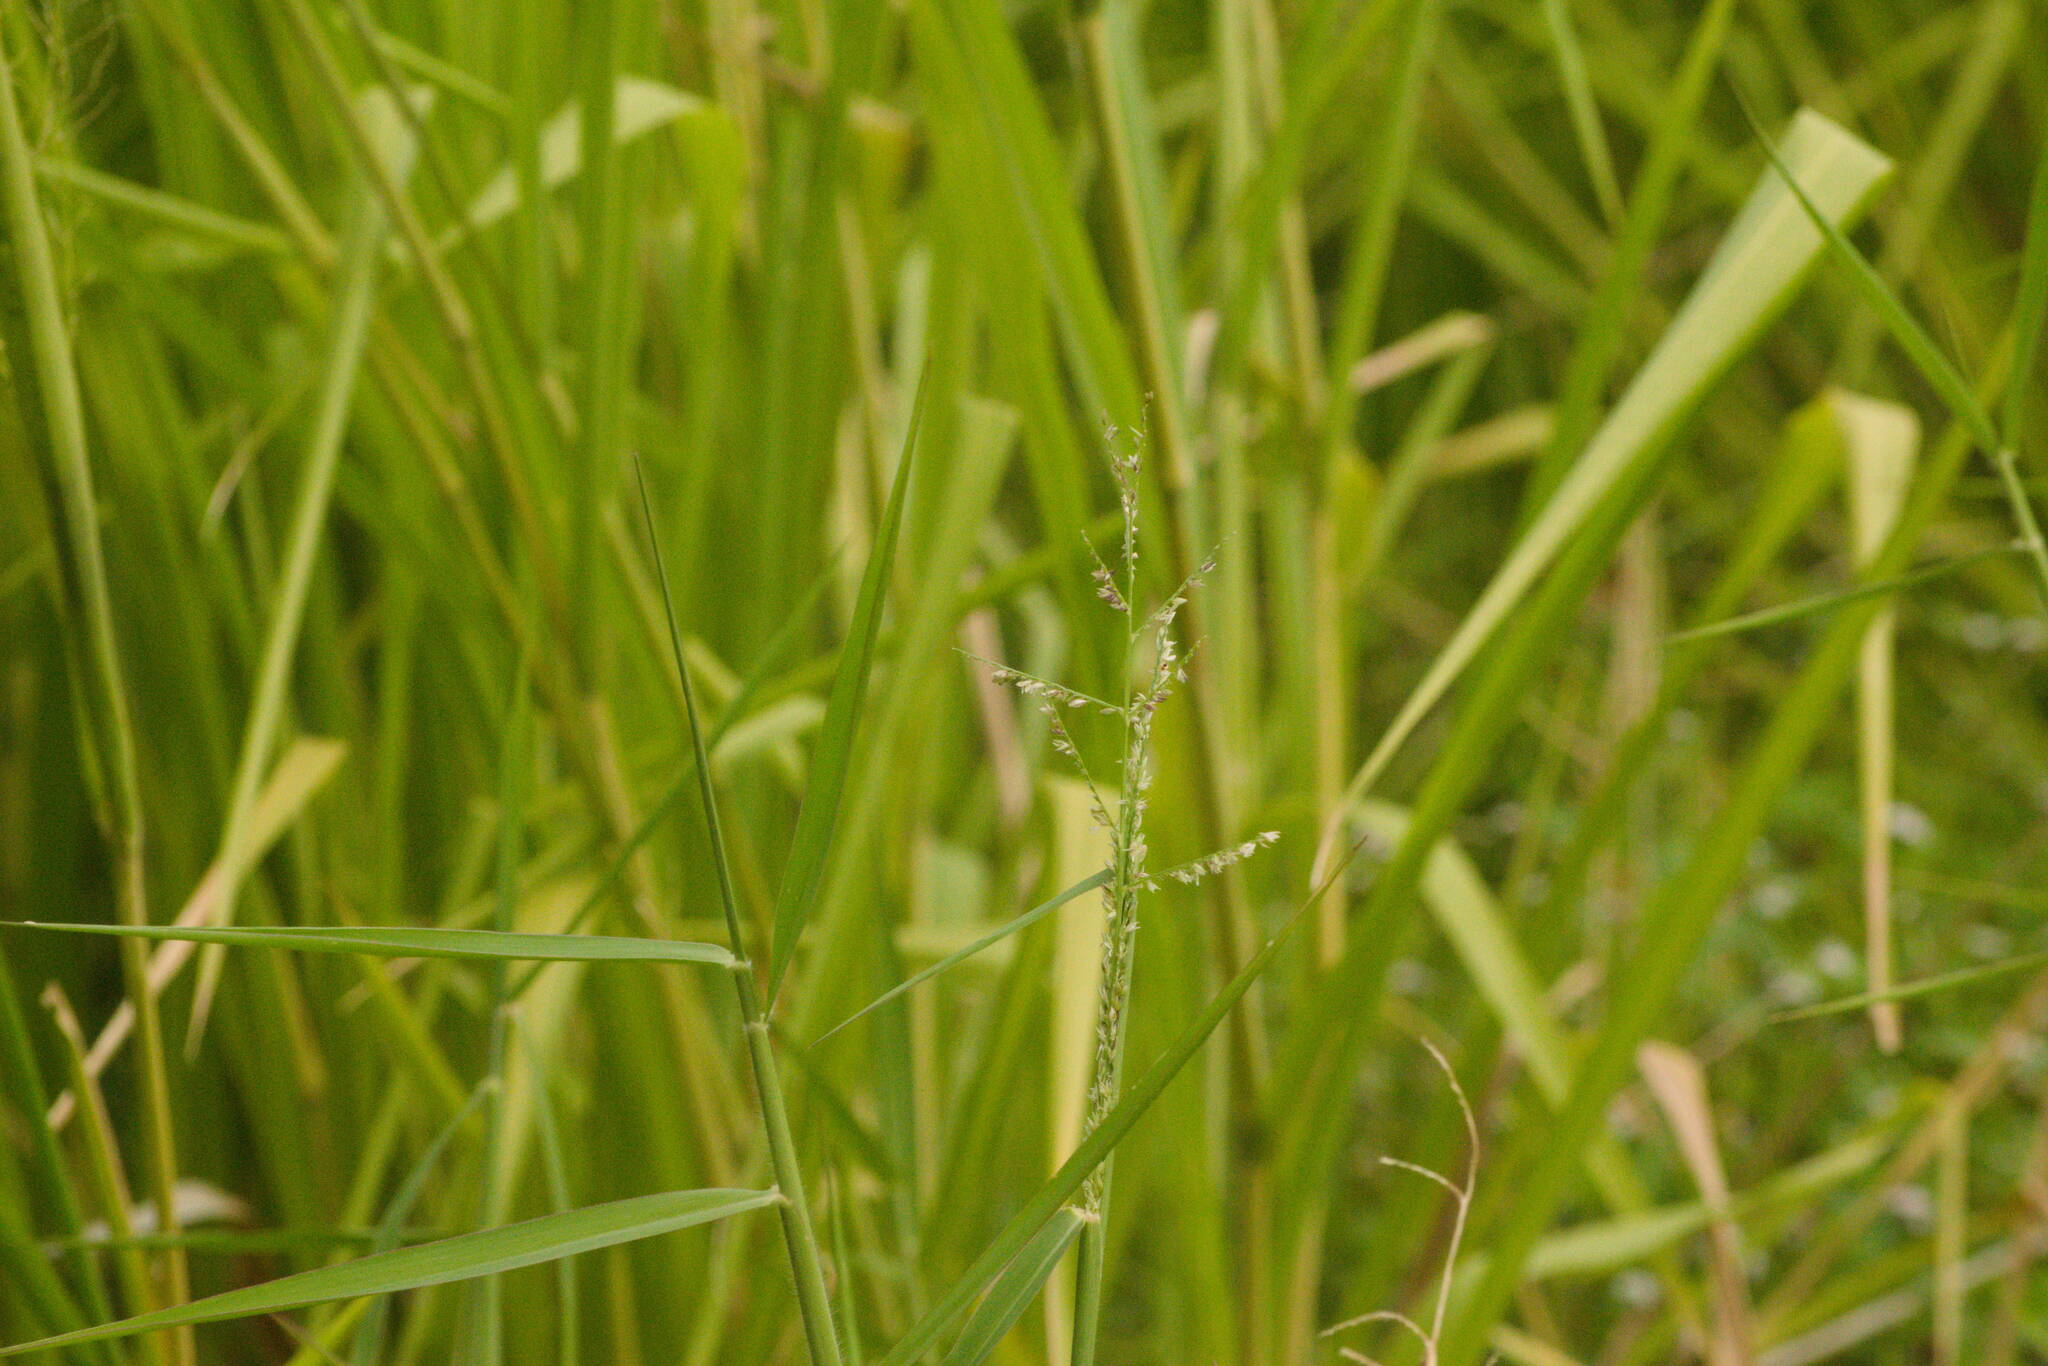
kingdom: Plantae
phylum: Tracheophyta
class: Liliopsida
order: Poales
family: Poaceae
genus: Urochloa
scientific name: Urochloa mutica
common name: Para grass
